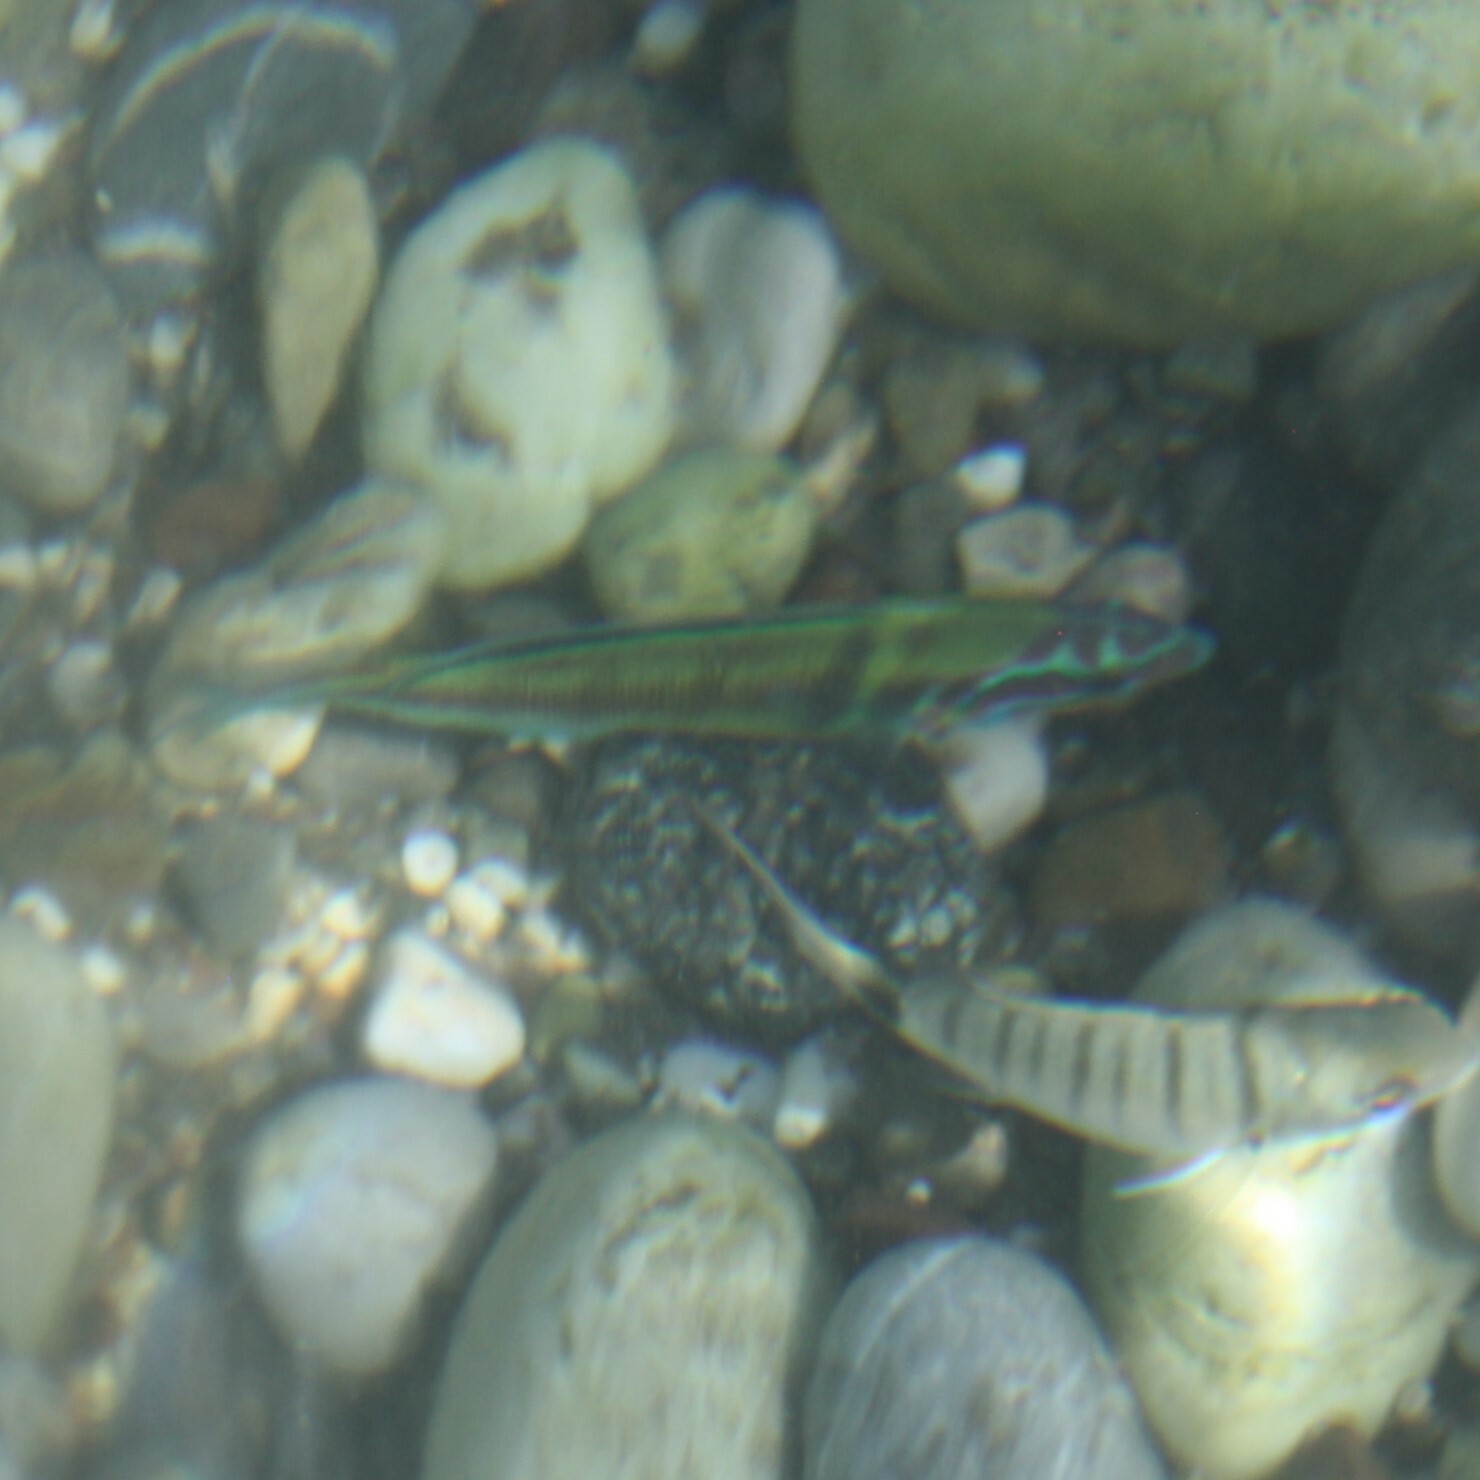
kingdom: Animalia
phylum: Chordata
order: Perciformes
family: Labridae
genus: Thalassoma
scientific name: Thalassoma pavo
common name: Ornate wrasse
